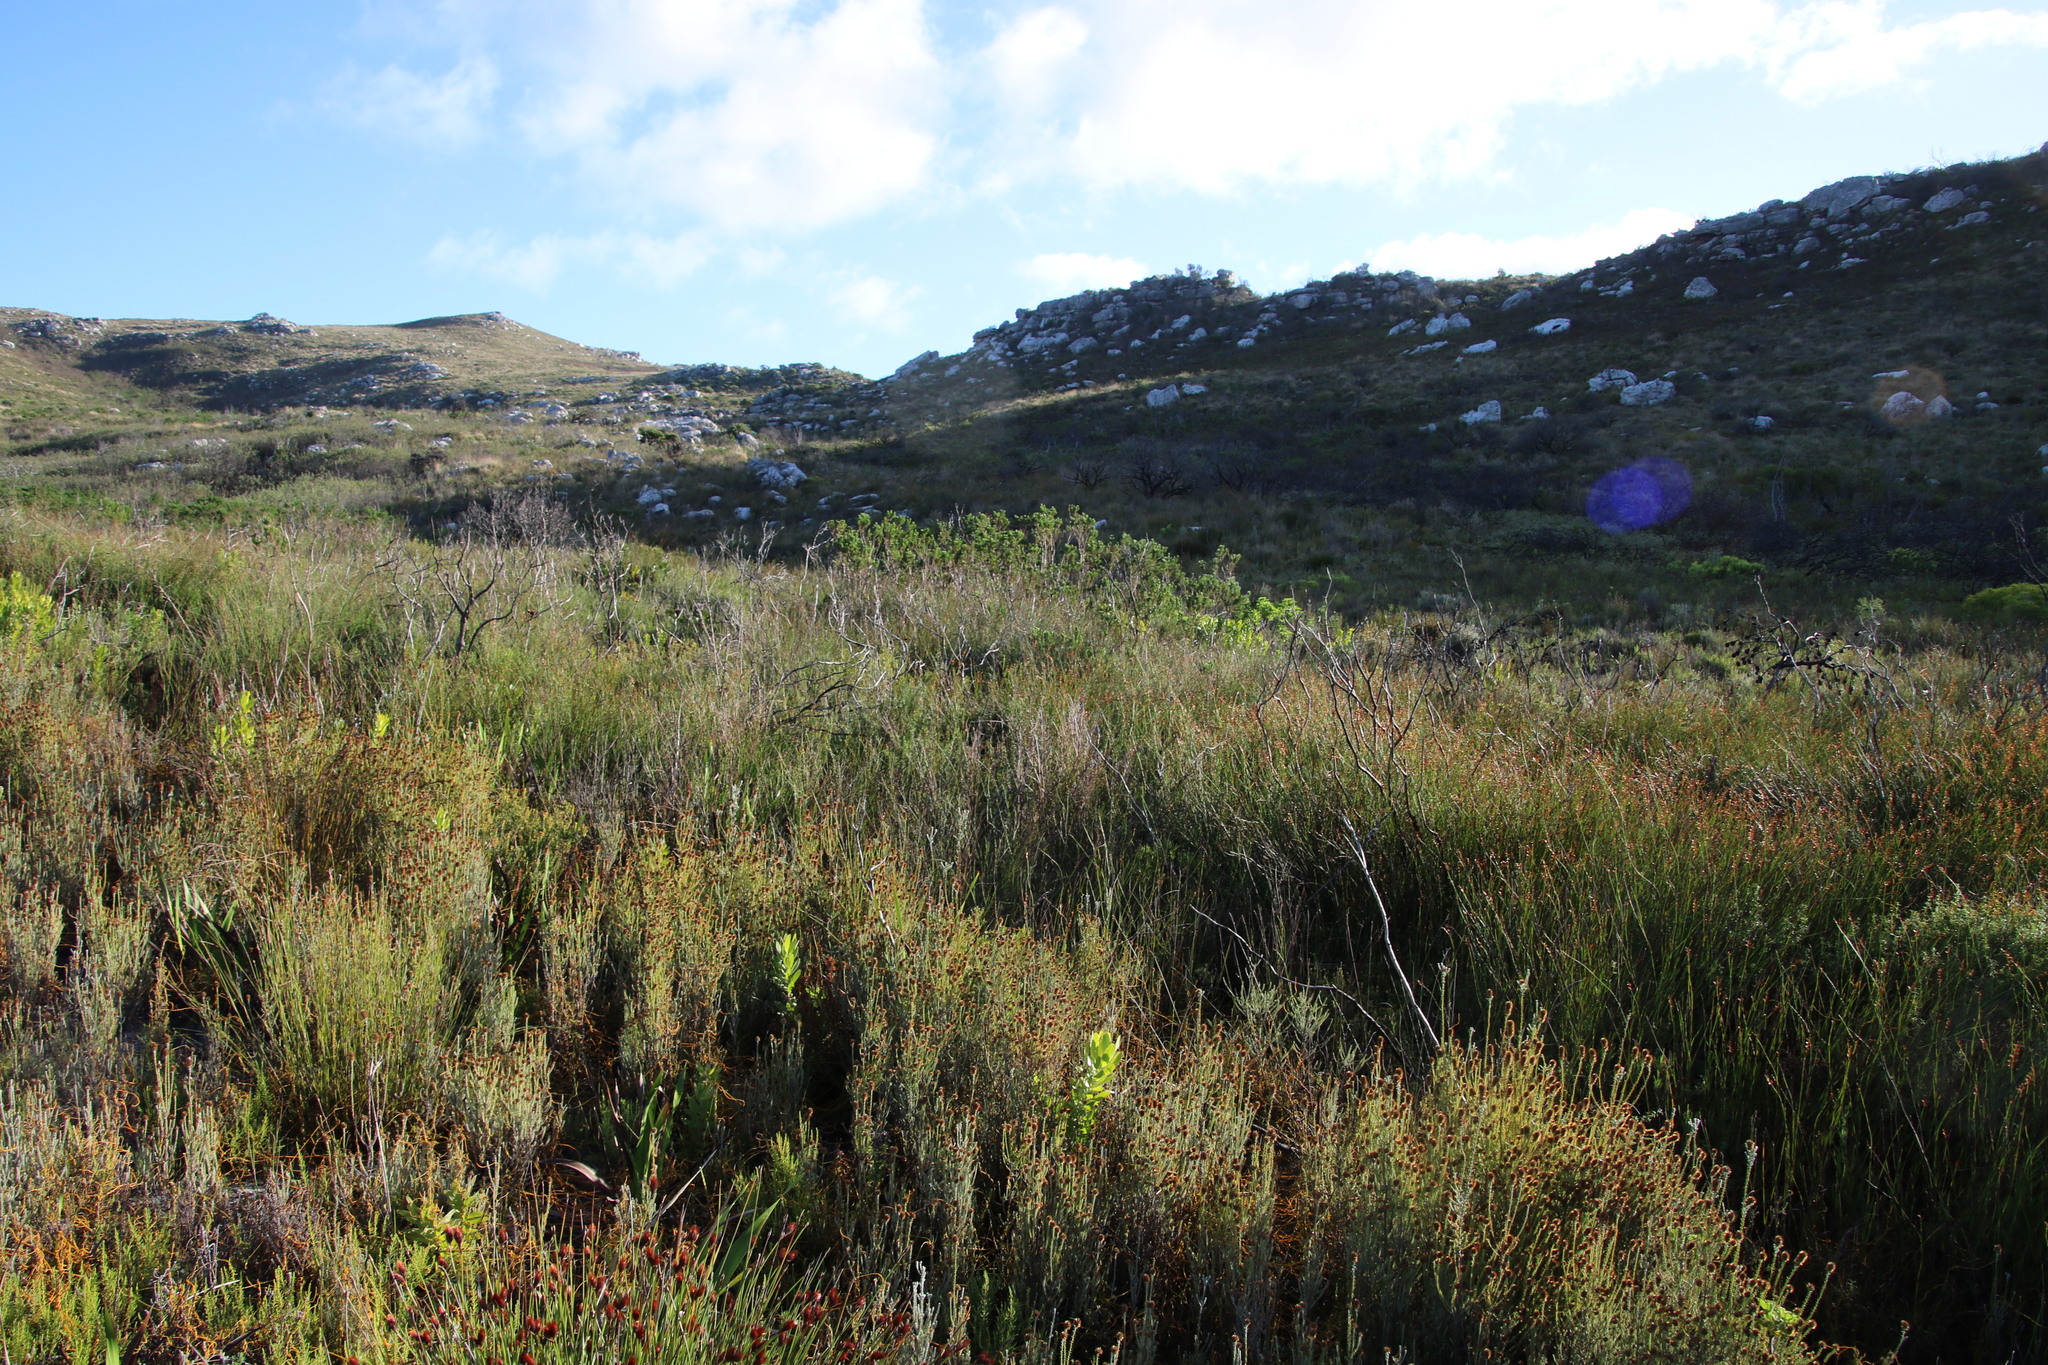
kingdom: Plantae
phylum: Tracheophyta
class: Liliopsida
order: Poales
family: Restionaceae
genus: Platycaulos
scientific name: Platycaulos compressus
